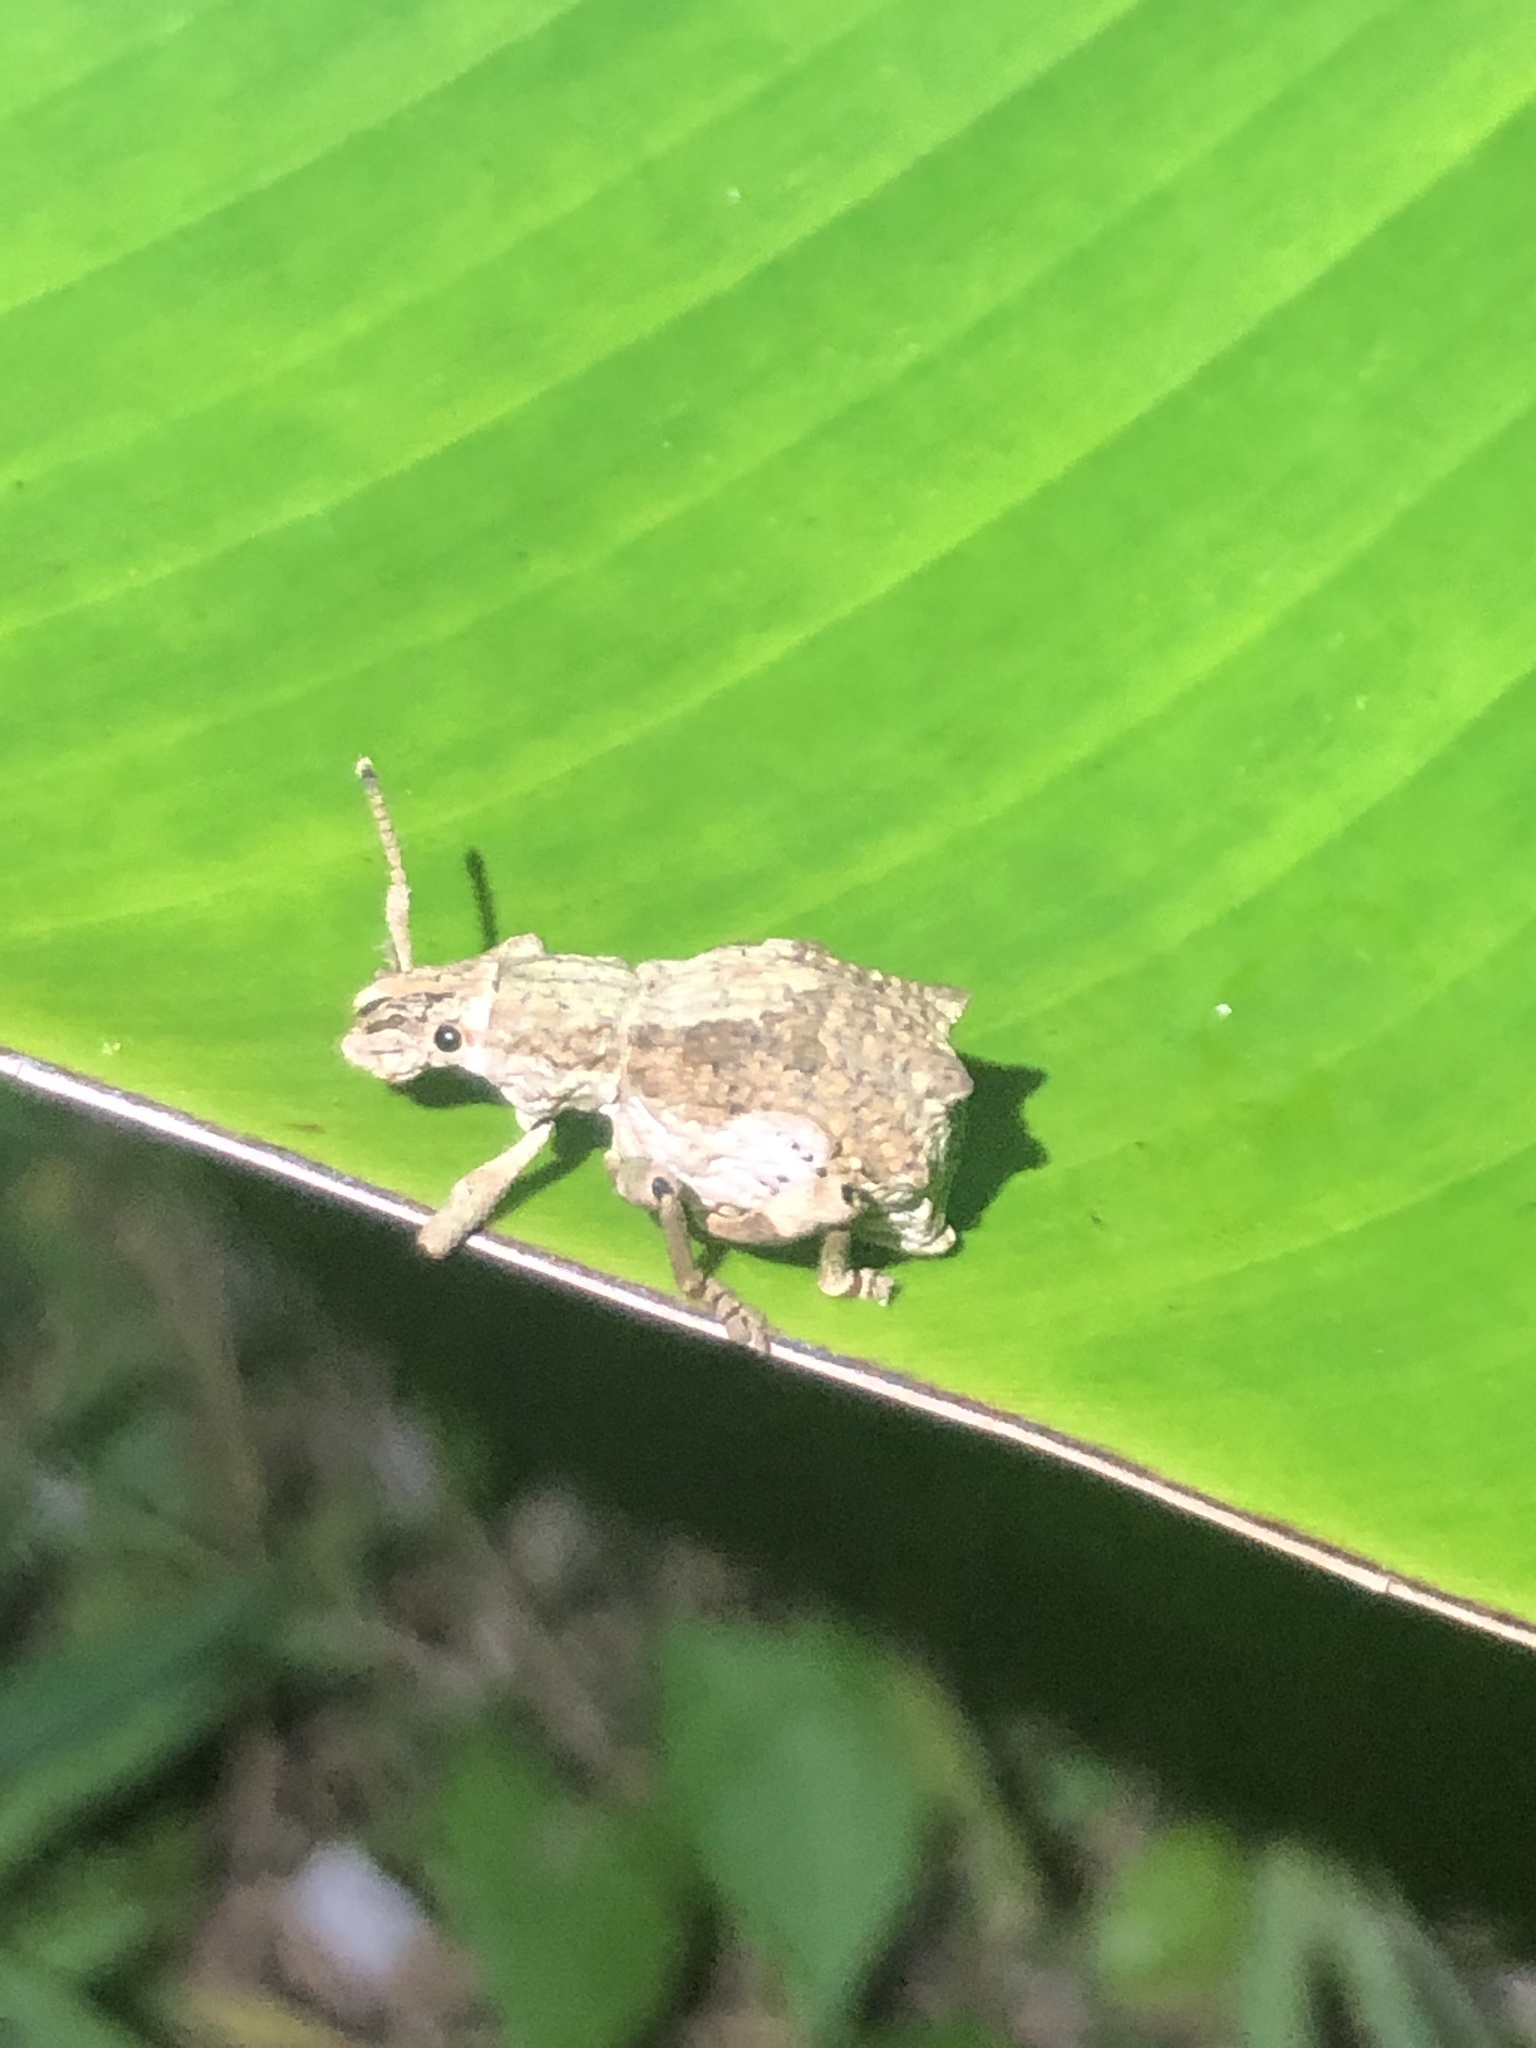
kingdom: Animalia
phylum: Arthropoda
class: Insecta
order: Coleoptera
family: Curculionidae
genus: Episomus
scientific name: Episomus
